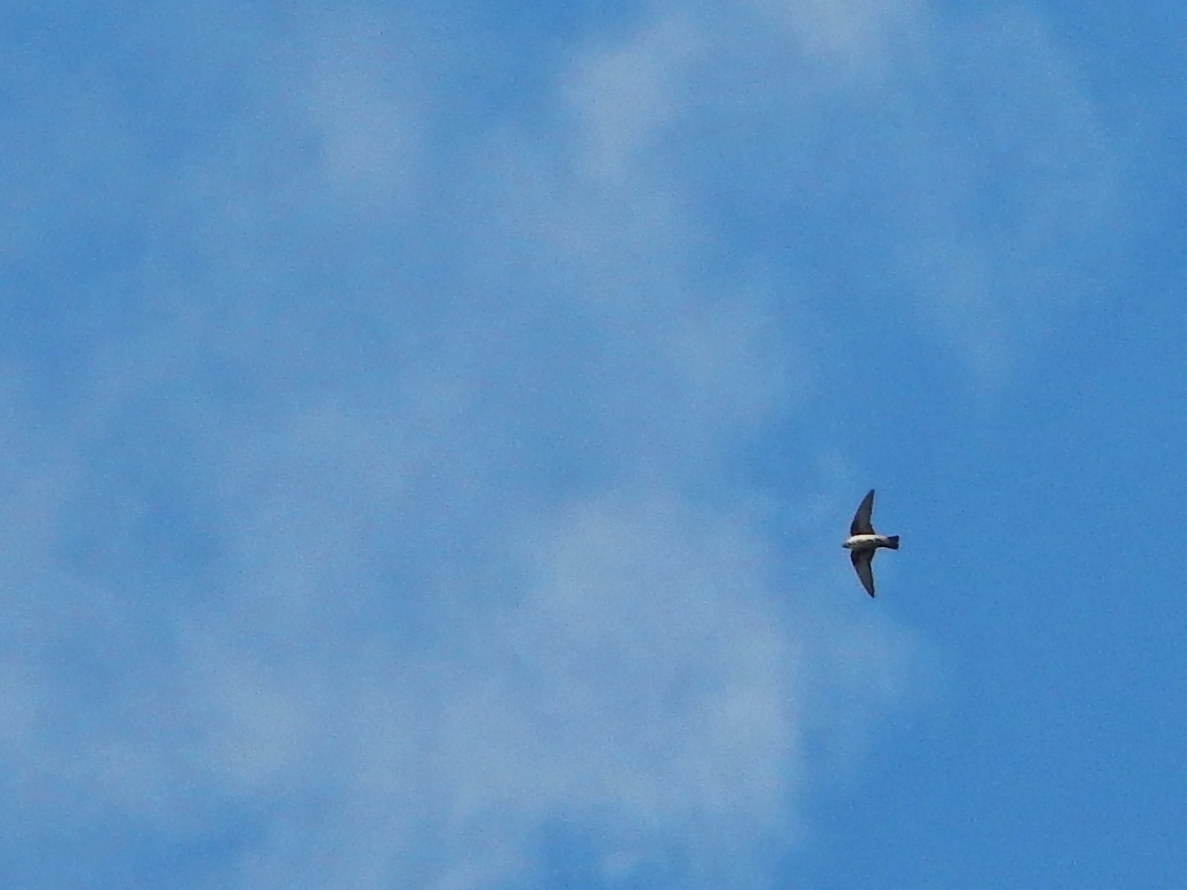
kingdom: Animalia
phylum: Chordata
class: Aves
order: Passeriformes
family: Hirundinidae
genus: Delichon
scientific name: Delichon urbicum
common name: Common house martin
